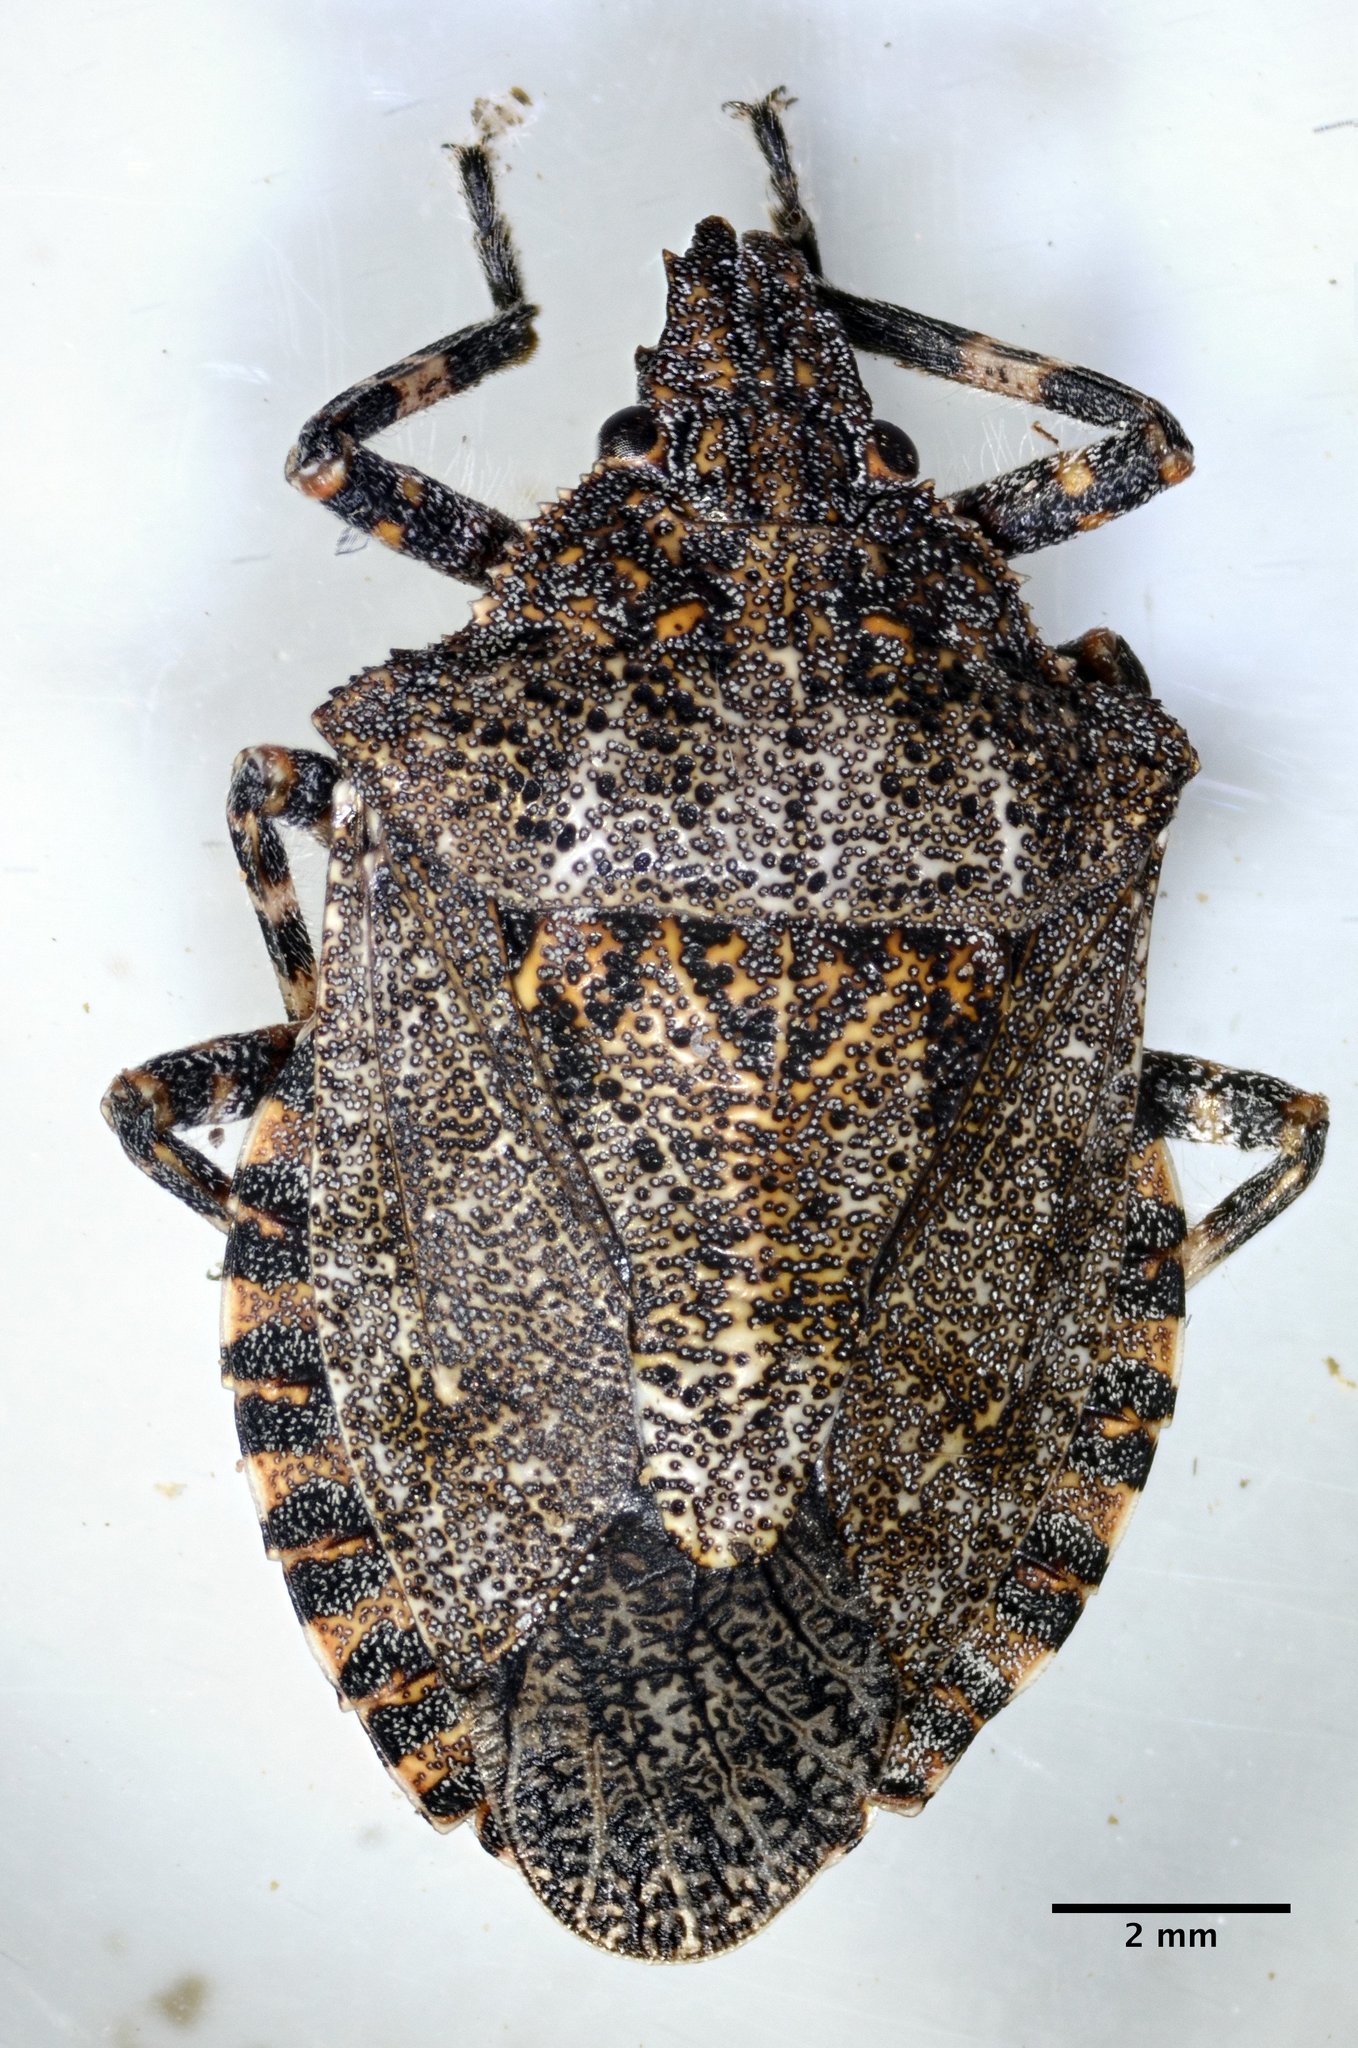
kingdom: Animalia
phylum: Arthropoda
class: Insecta
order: Hemiptera
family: Pentatomidae
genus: Brochymena
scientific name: Brochymena sulcata
